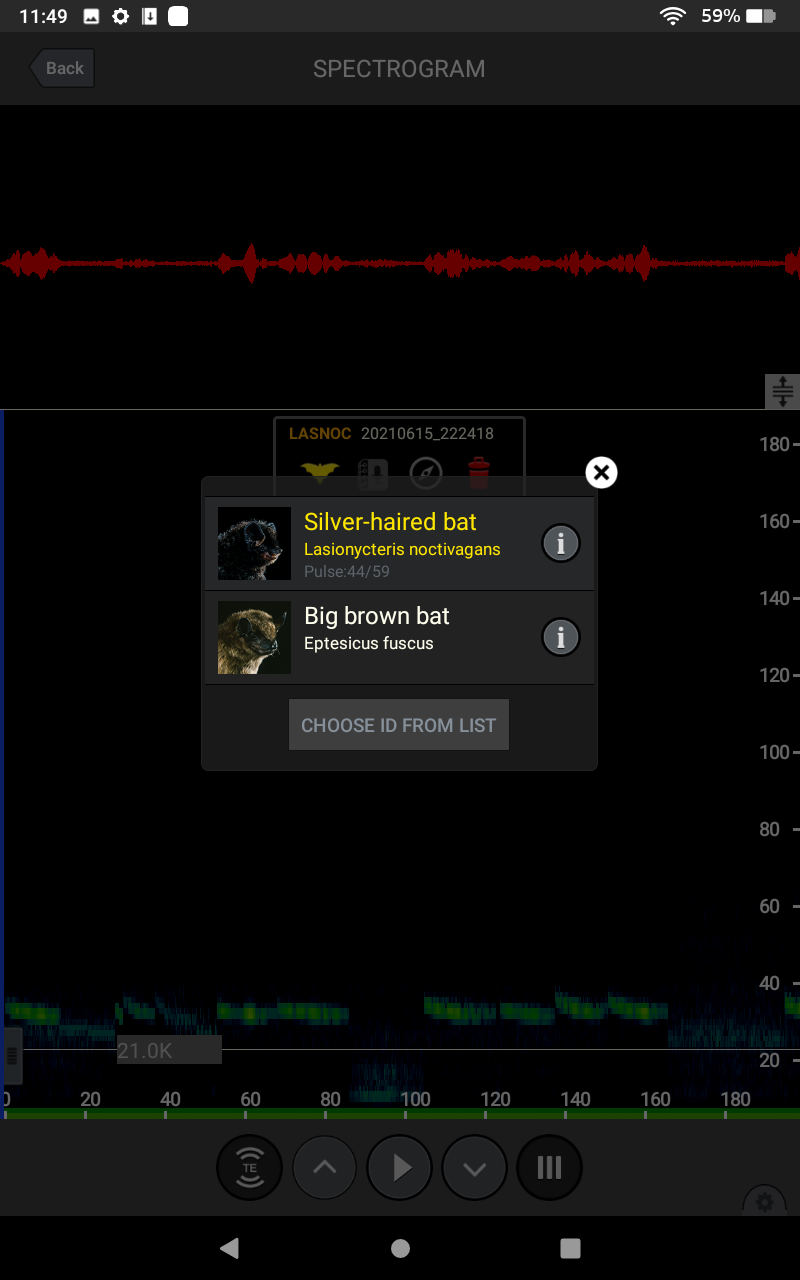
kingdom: Animalia
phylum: Chordata
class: Mammalia
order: Chiroptera
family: Vespertilionidae
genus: Lasionycteris
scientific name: Lasionycteris noctivagans
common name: Silver-haired bat
